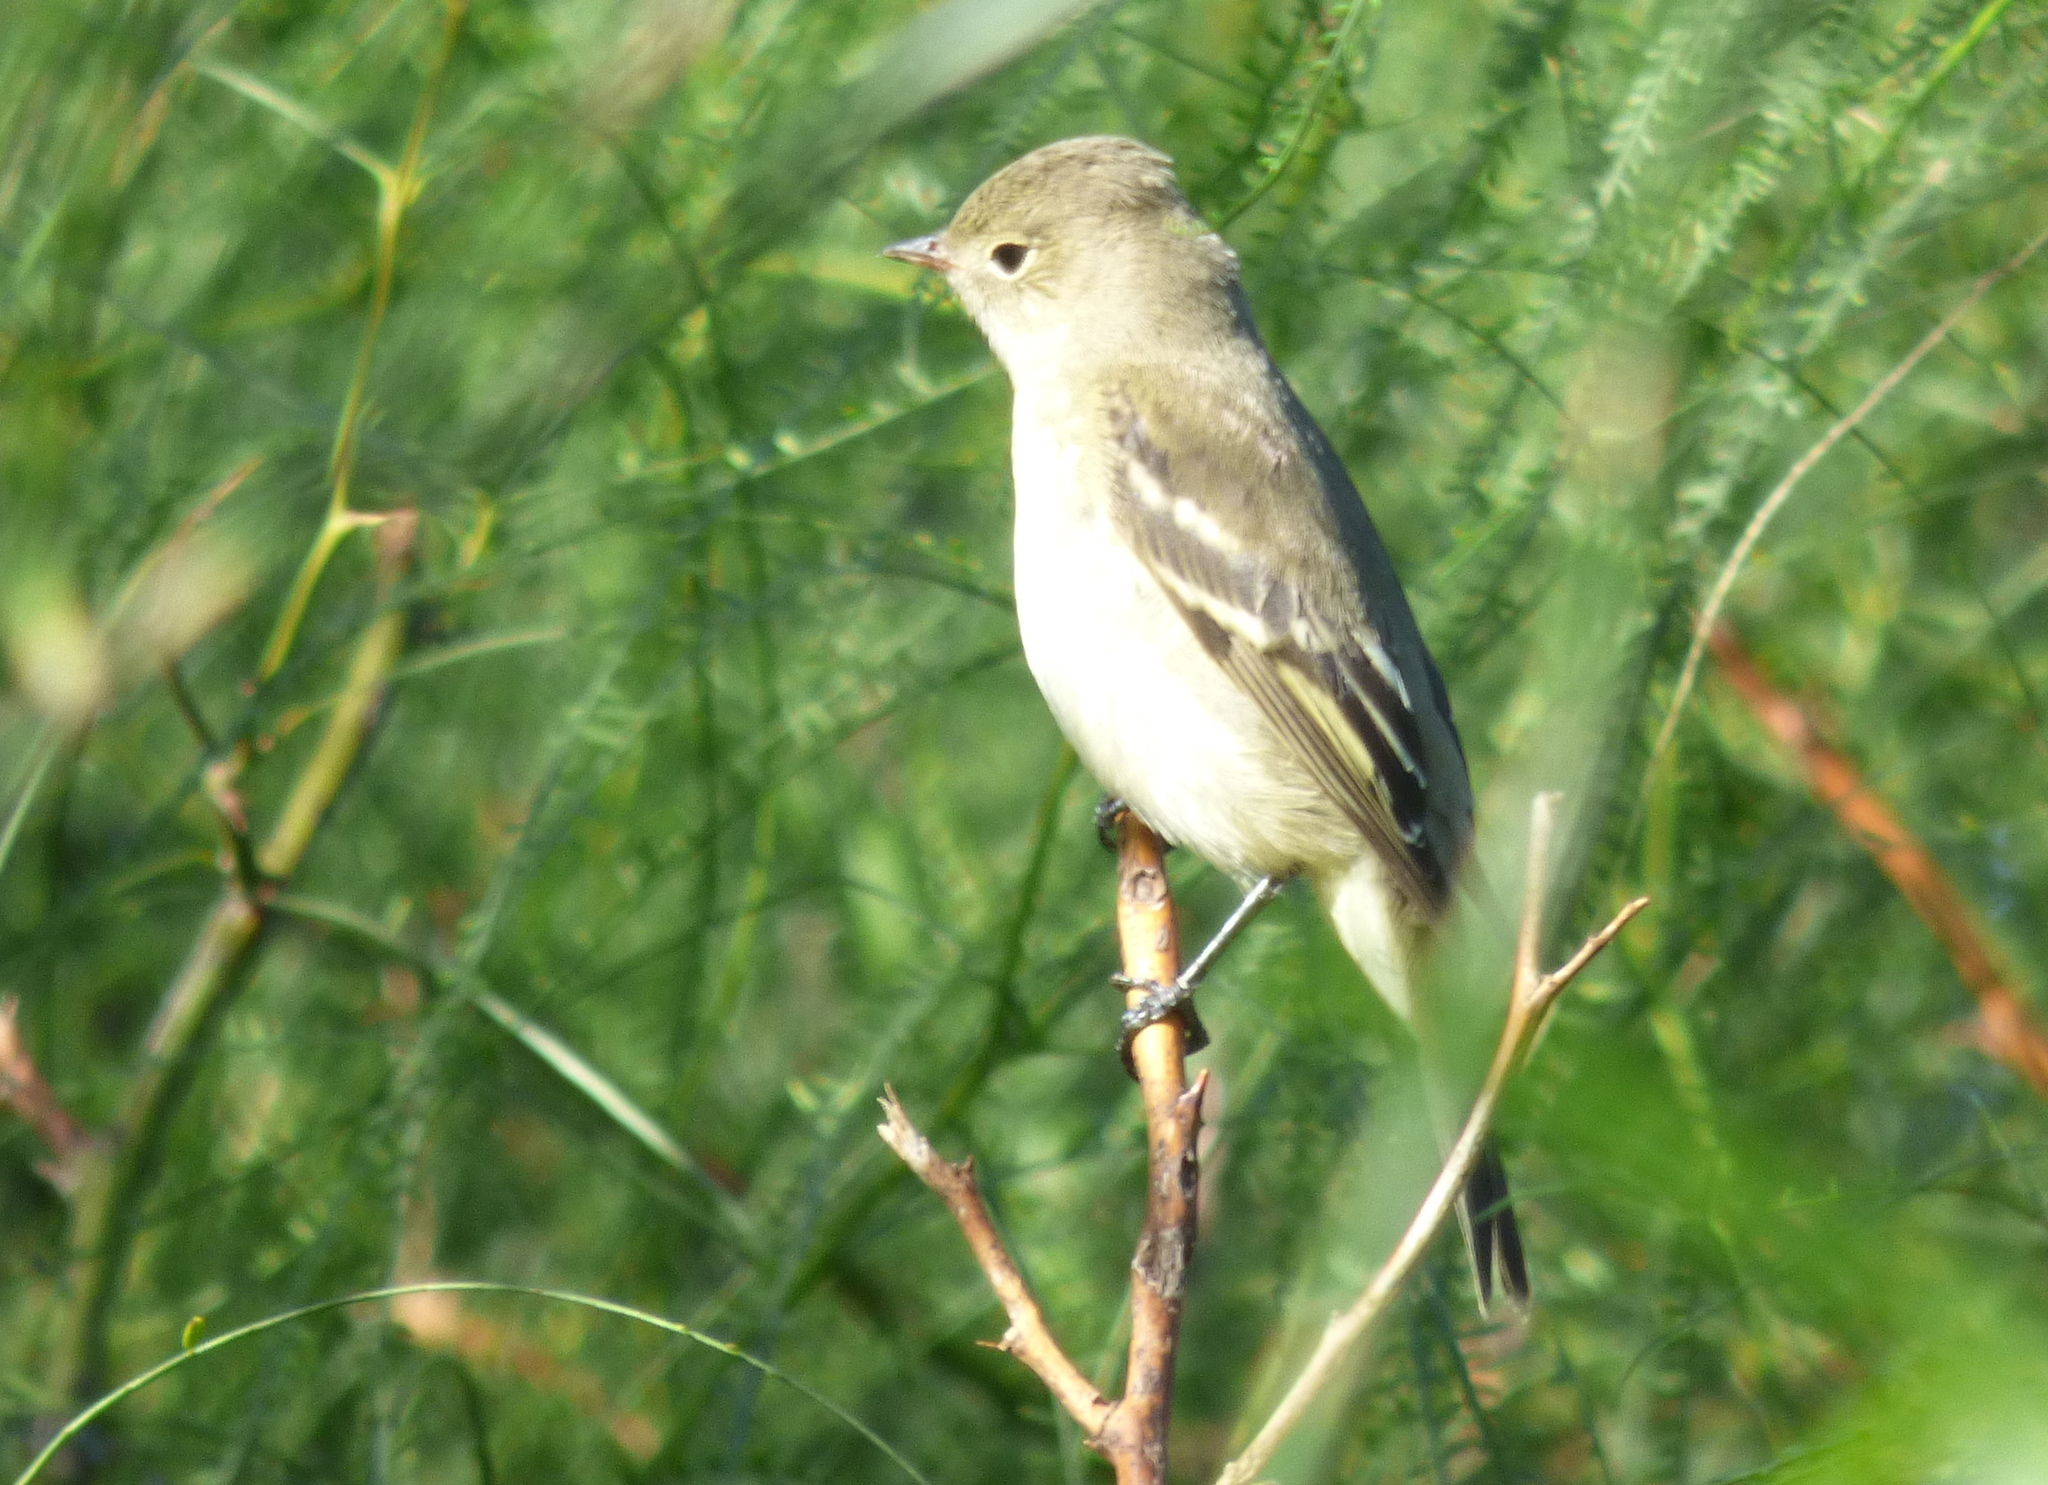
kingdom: Animalia
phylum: Chordata
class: Aves
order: Passeriformes
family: Tyrannidae
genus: Elaenia
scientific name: Elaenia albiceps
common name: White-crested elaenia
